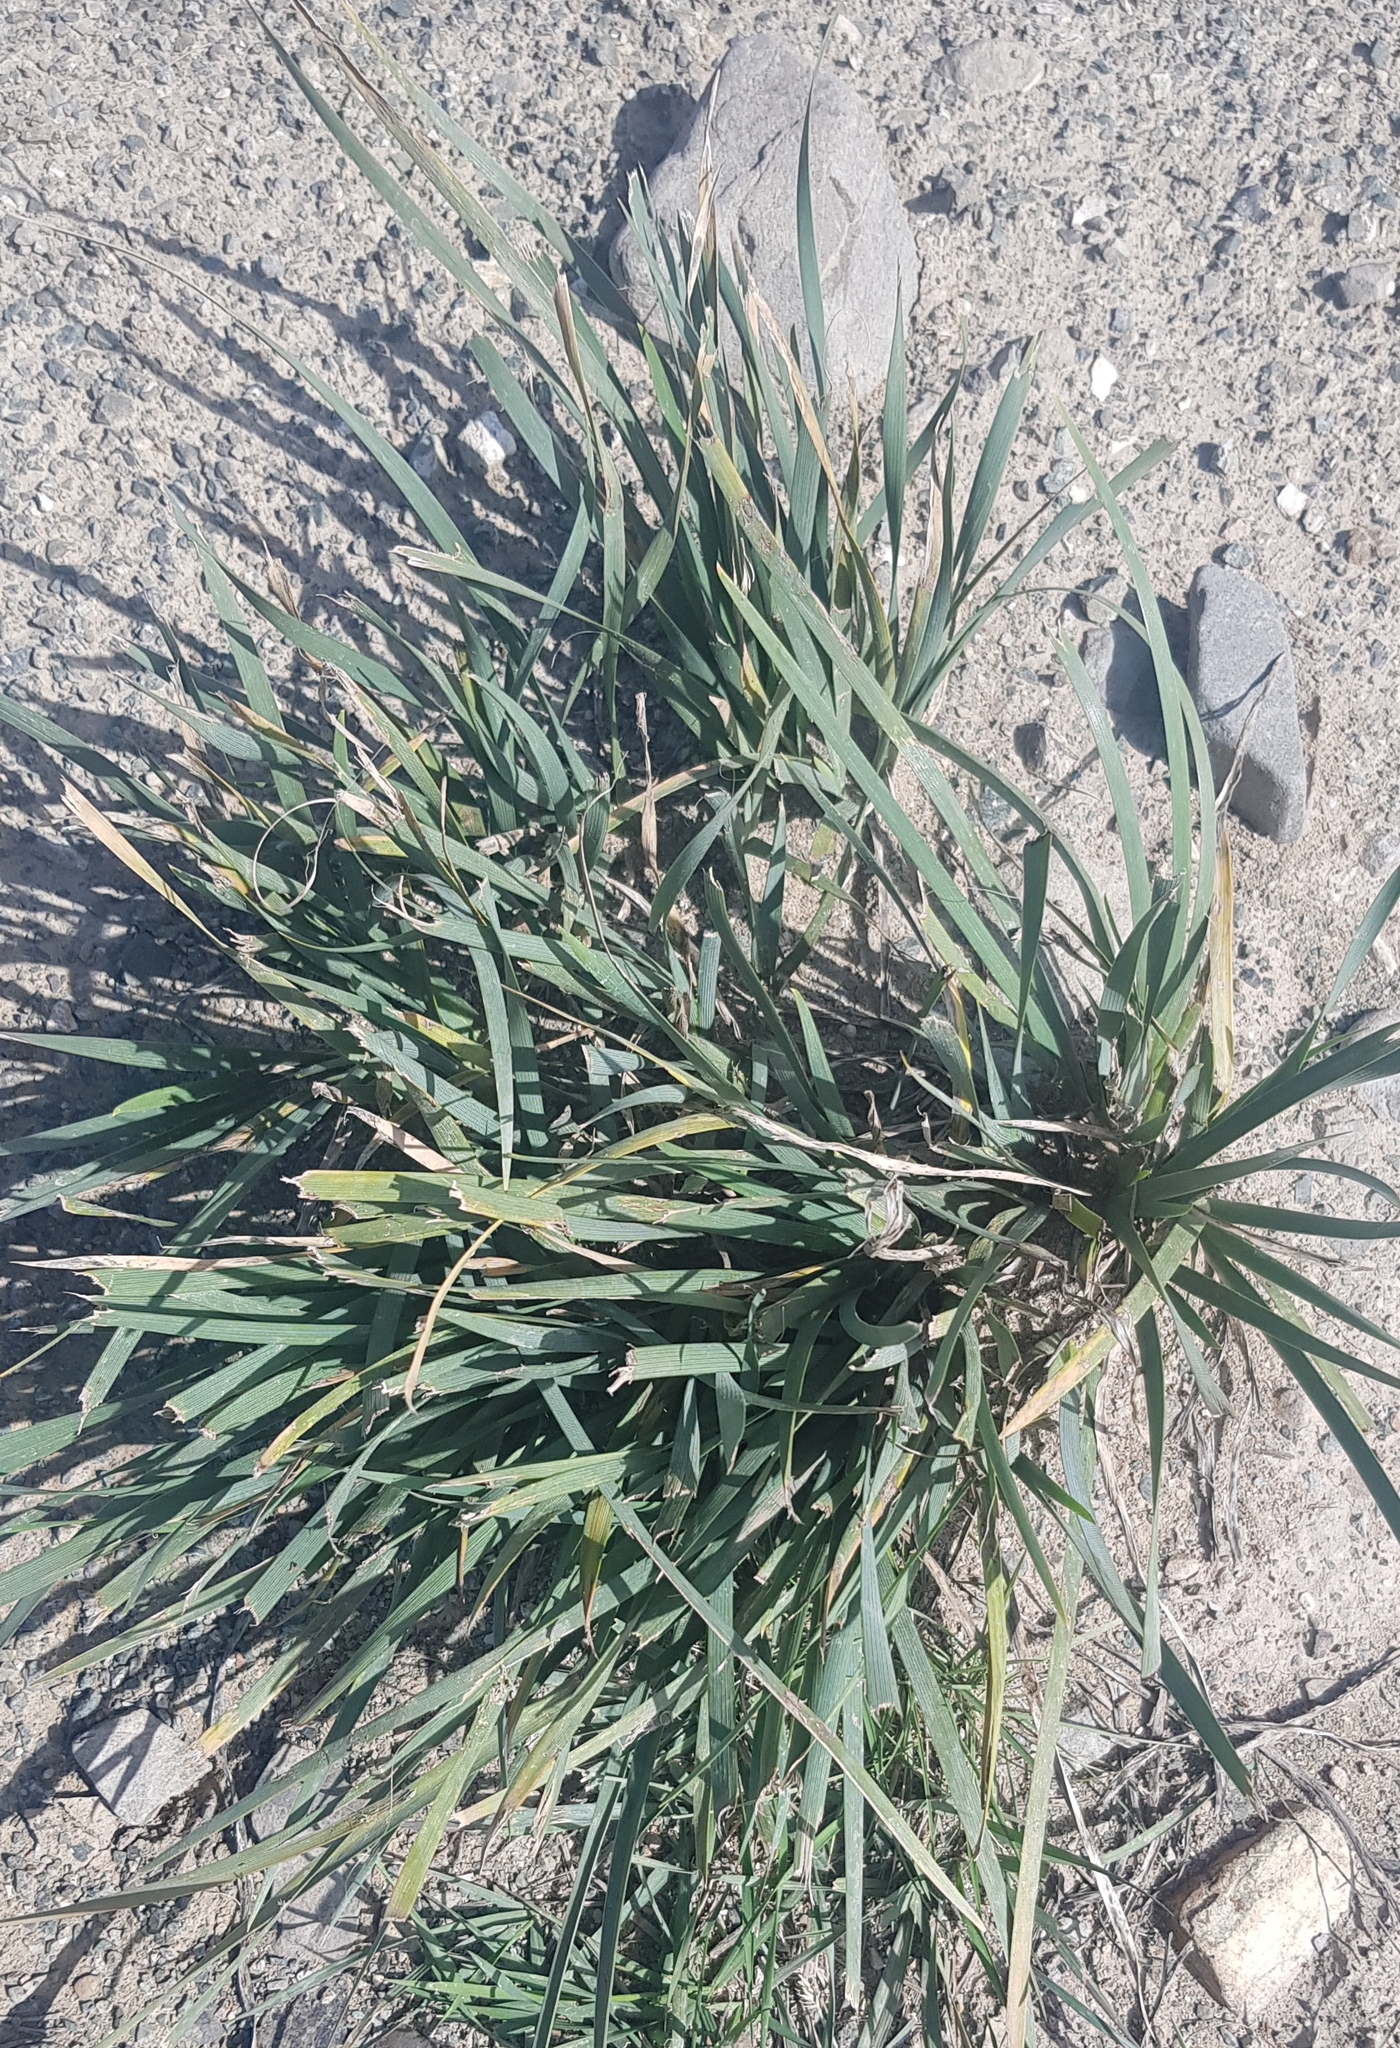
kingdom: Plantae
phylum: Tracheophyta
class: Liliopsida
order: Asparagales
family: Iridaceae
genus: Iris
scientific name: Iris lactea
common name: White-flower chinese iris
